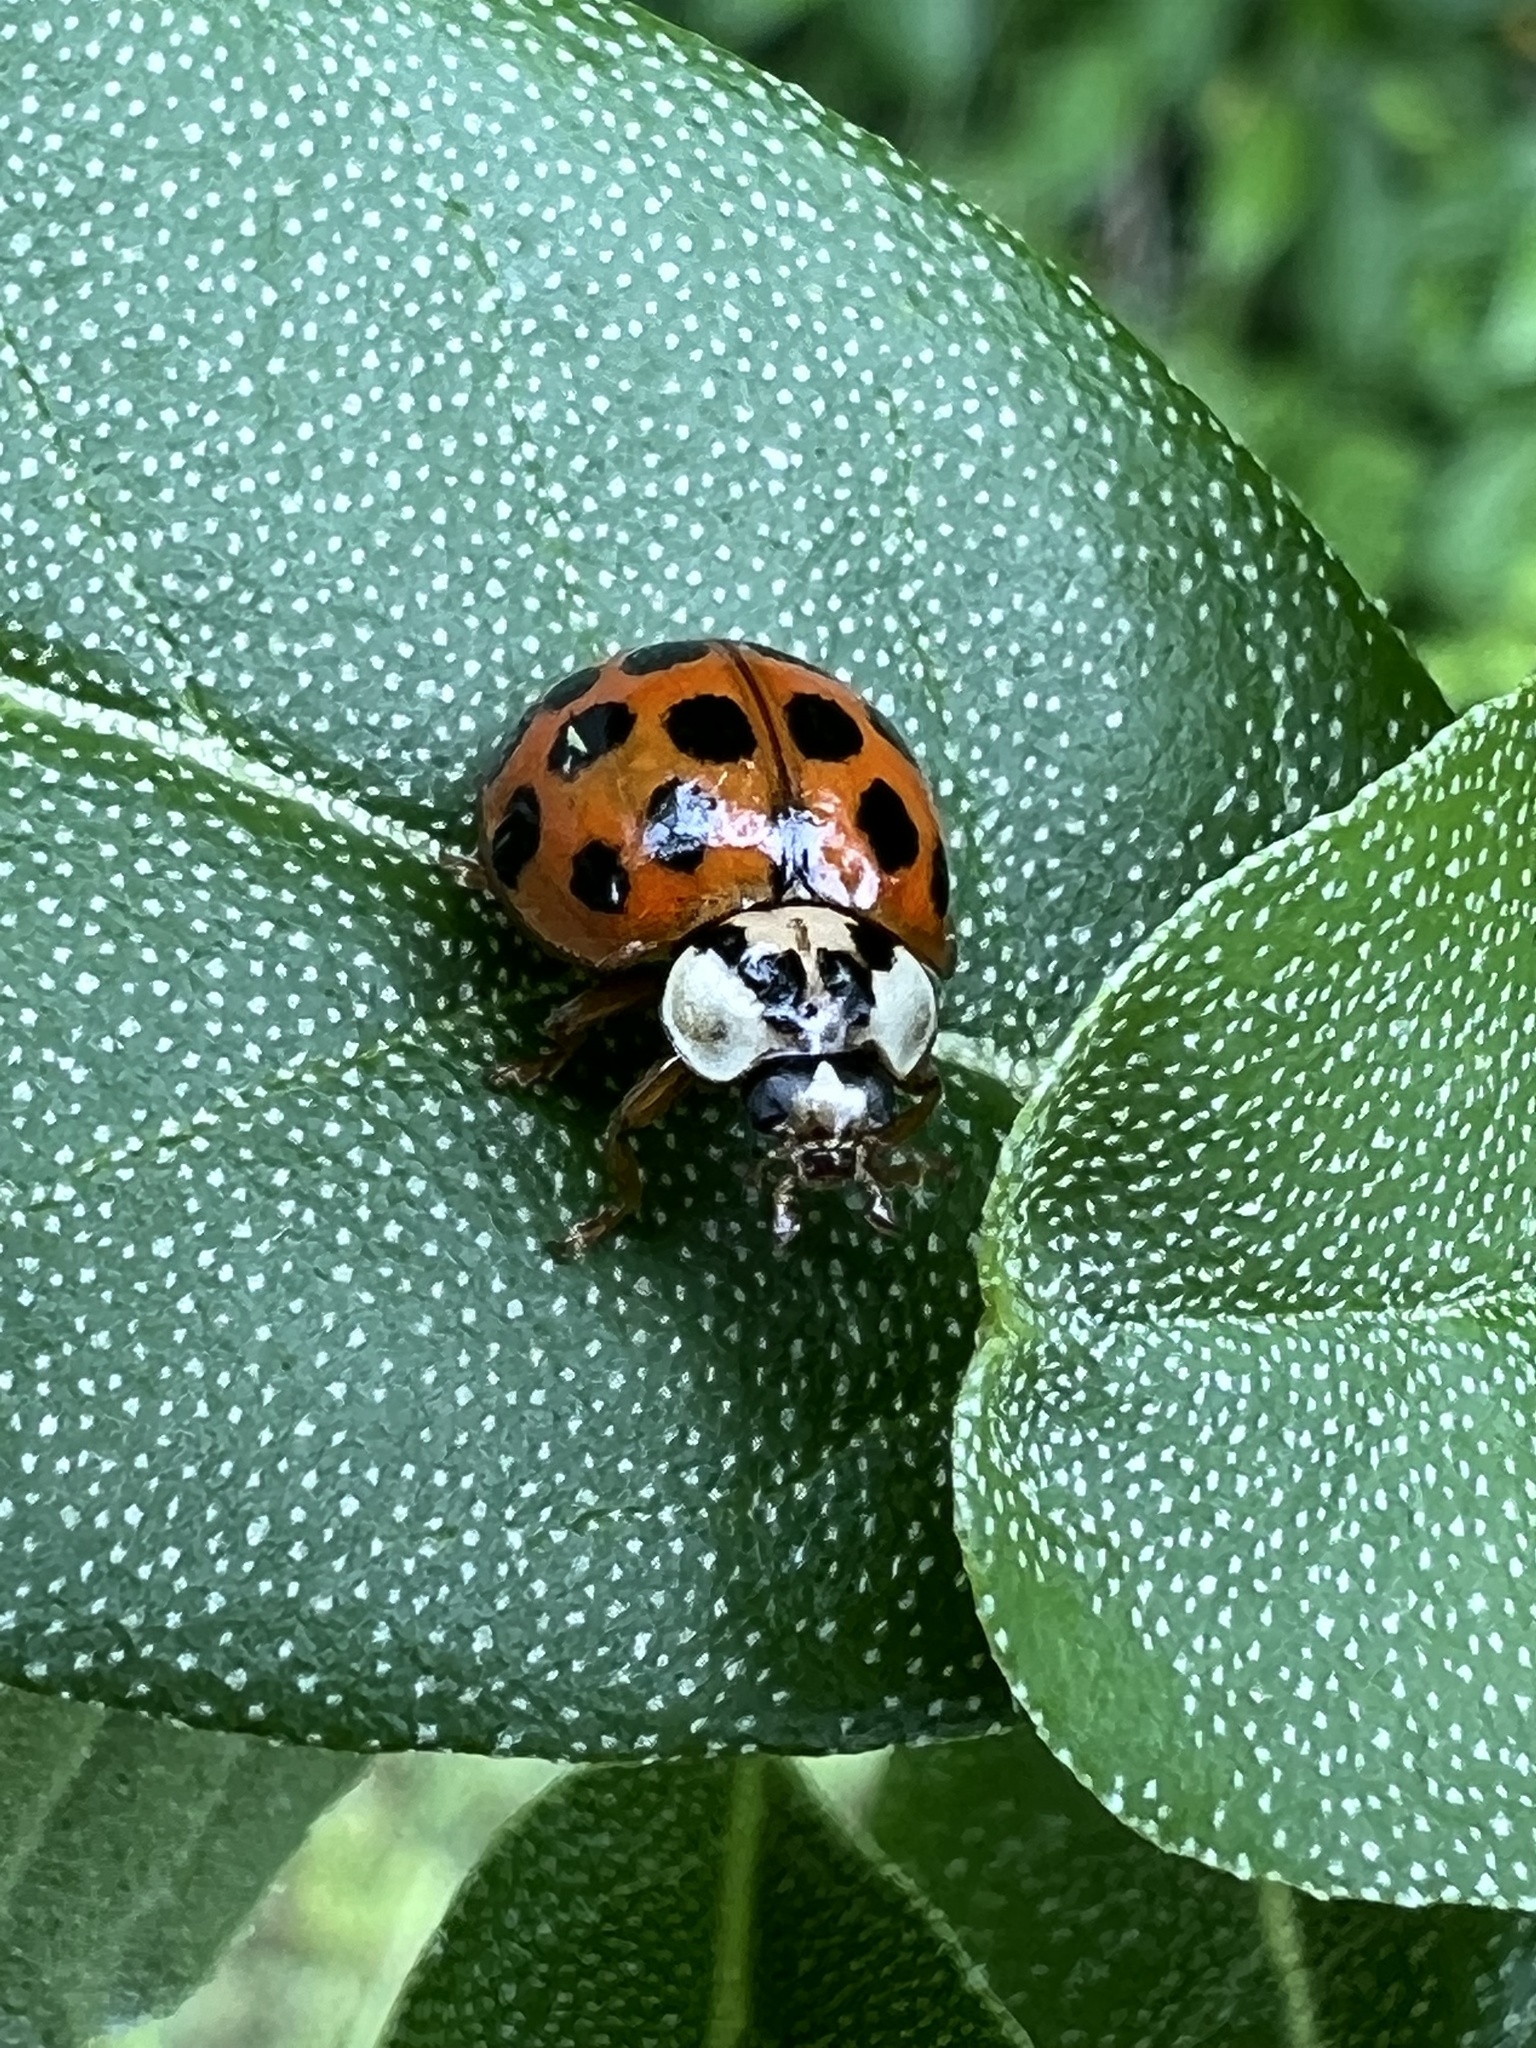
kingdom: Animalia
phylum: Arthropoda
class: Insecta
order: Coleoptera
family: Coccinellidae
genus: Harmonia
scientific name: Harmonia axyridis
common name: Harlequin ladybird
